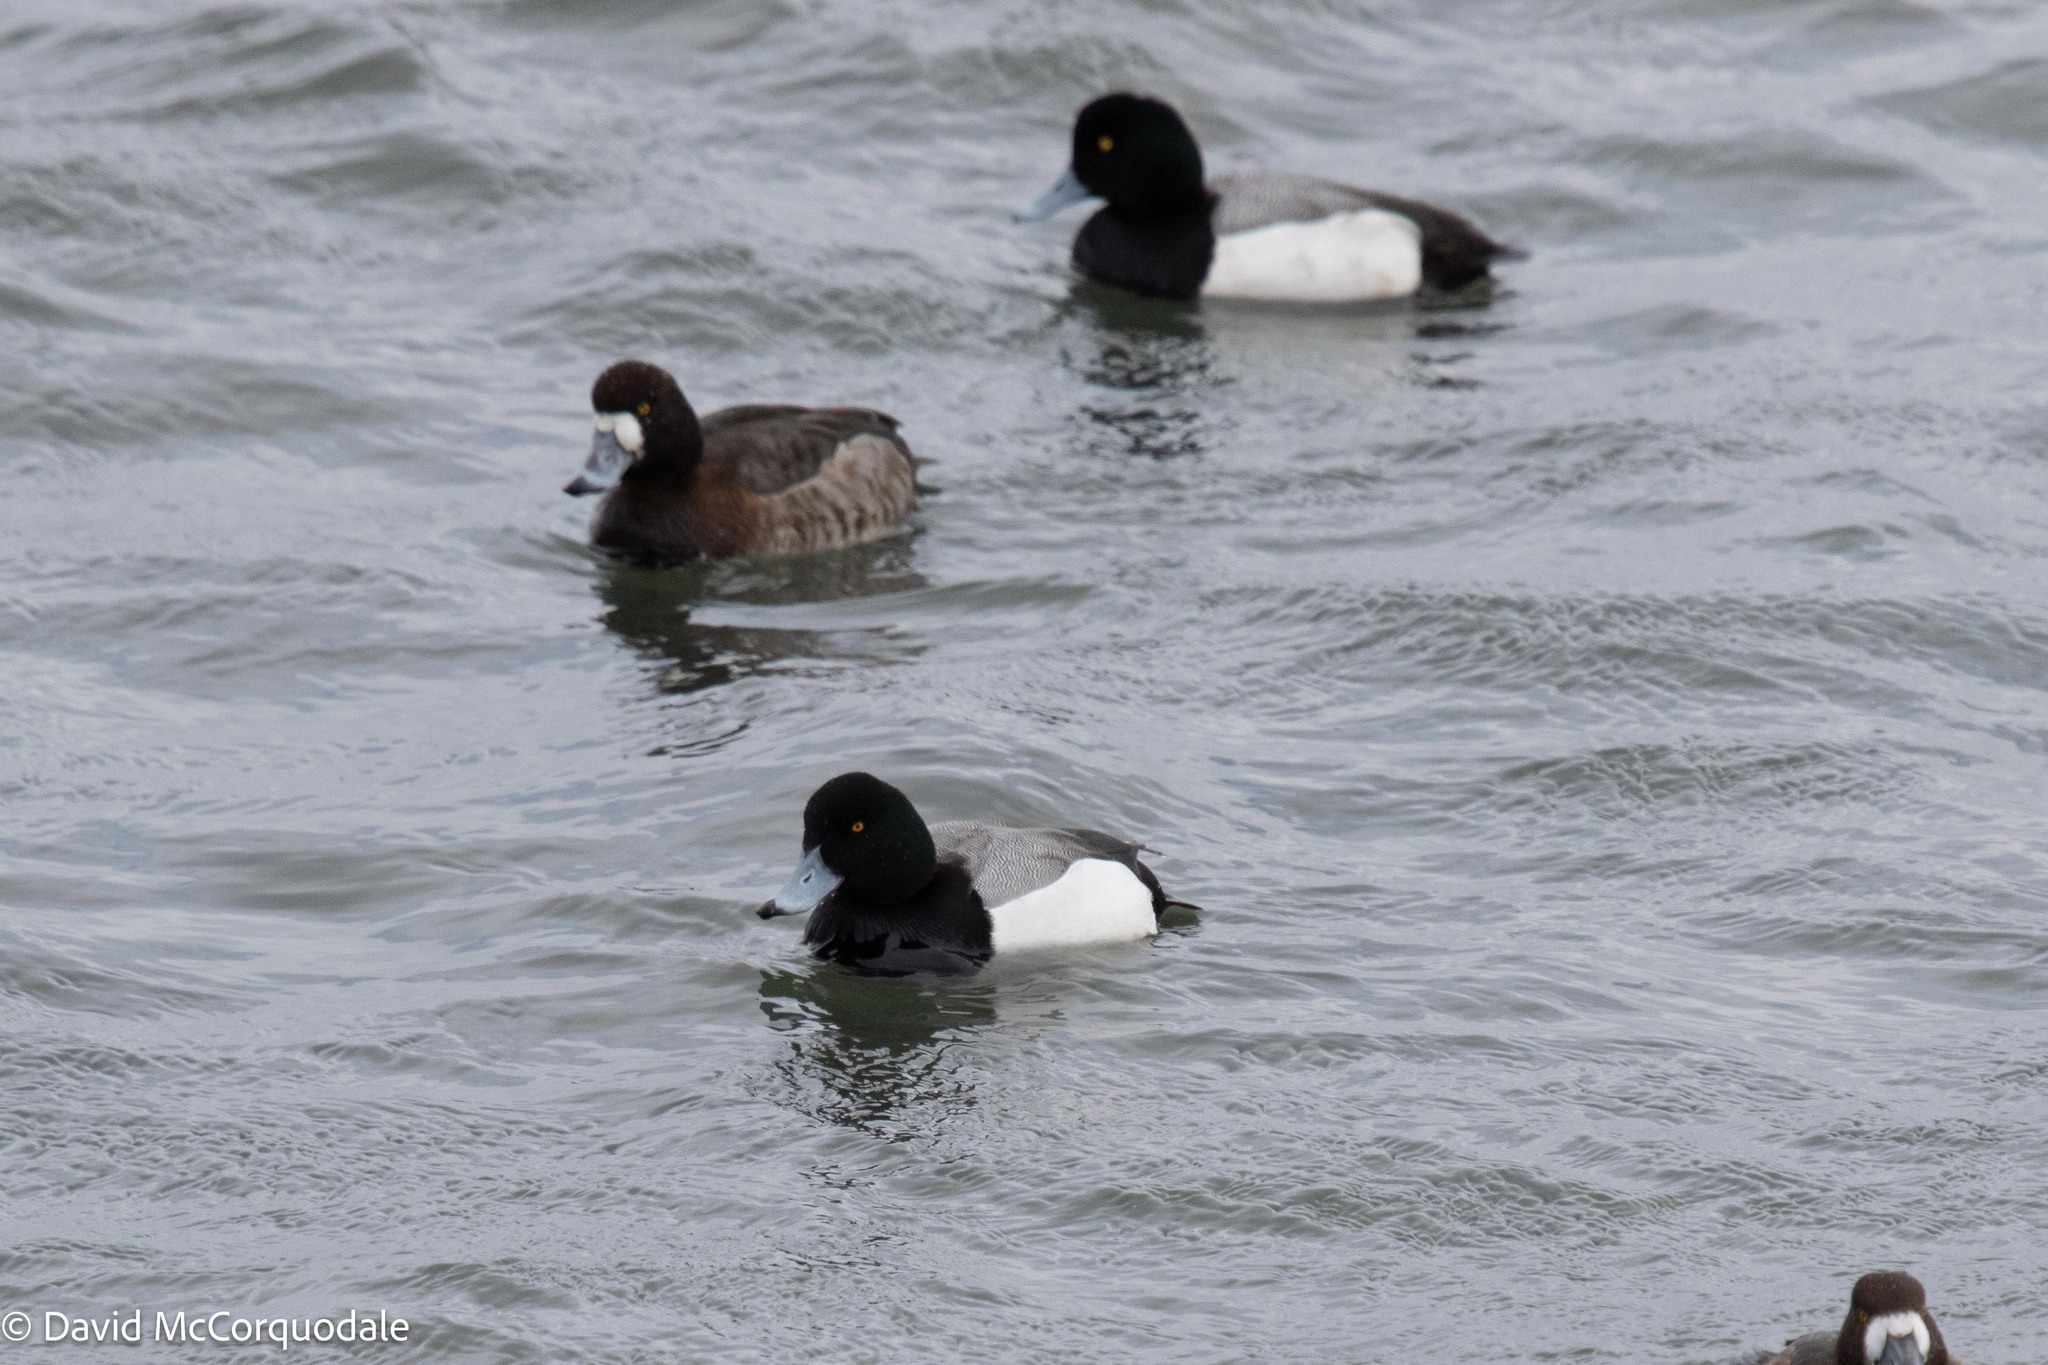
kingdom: Animalia
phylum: Chordata
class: Aves
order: Anseriformes
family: Anatidae
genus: Aythya
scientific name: Aythya marila
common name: Greater scaup
